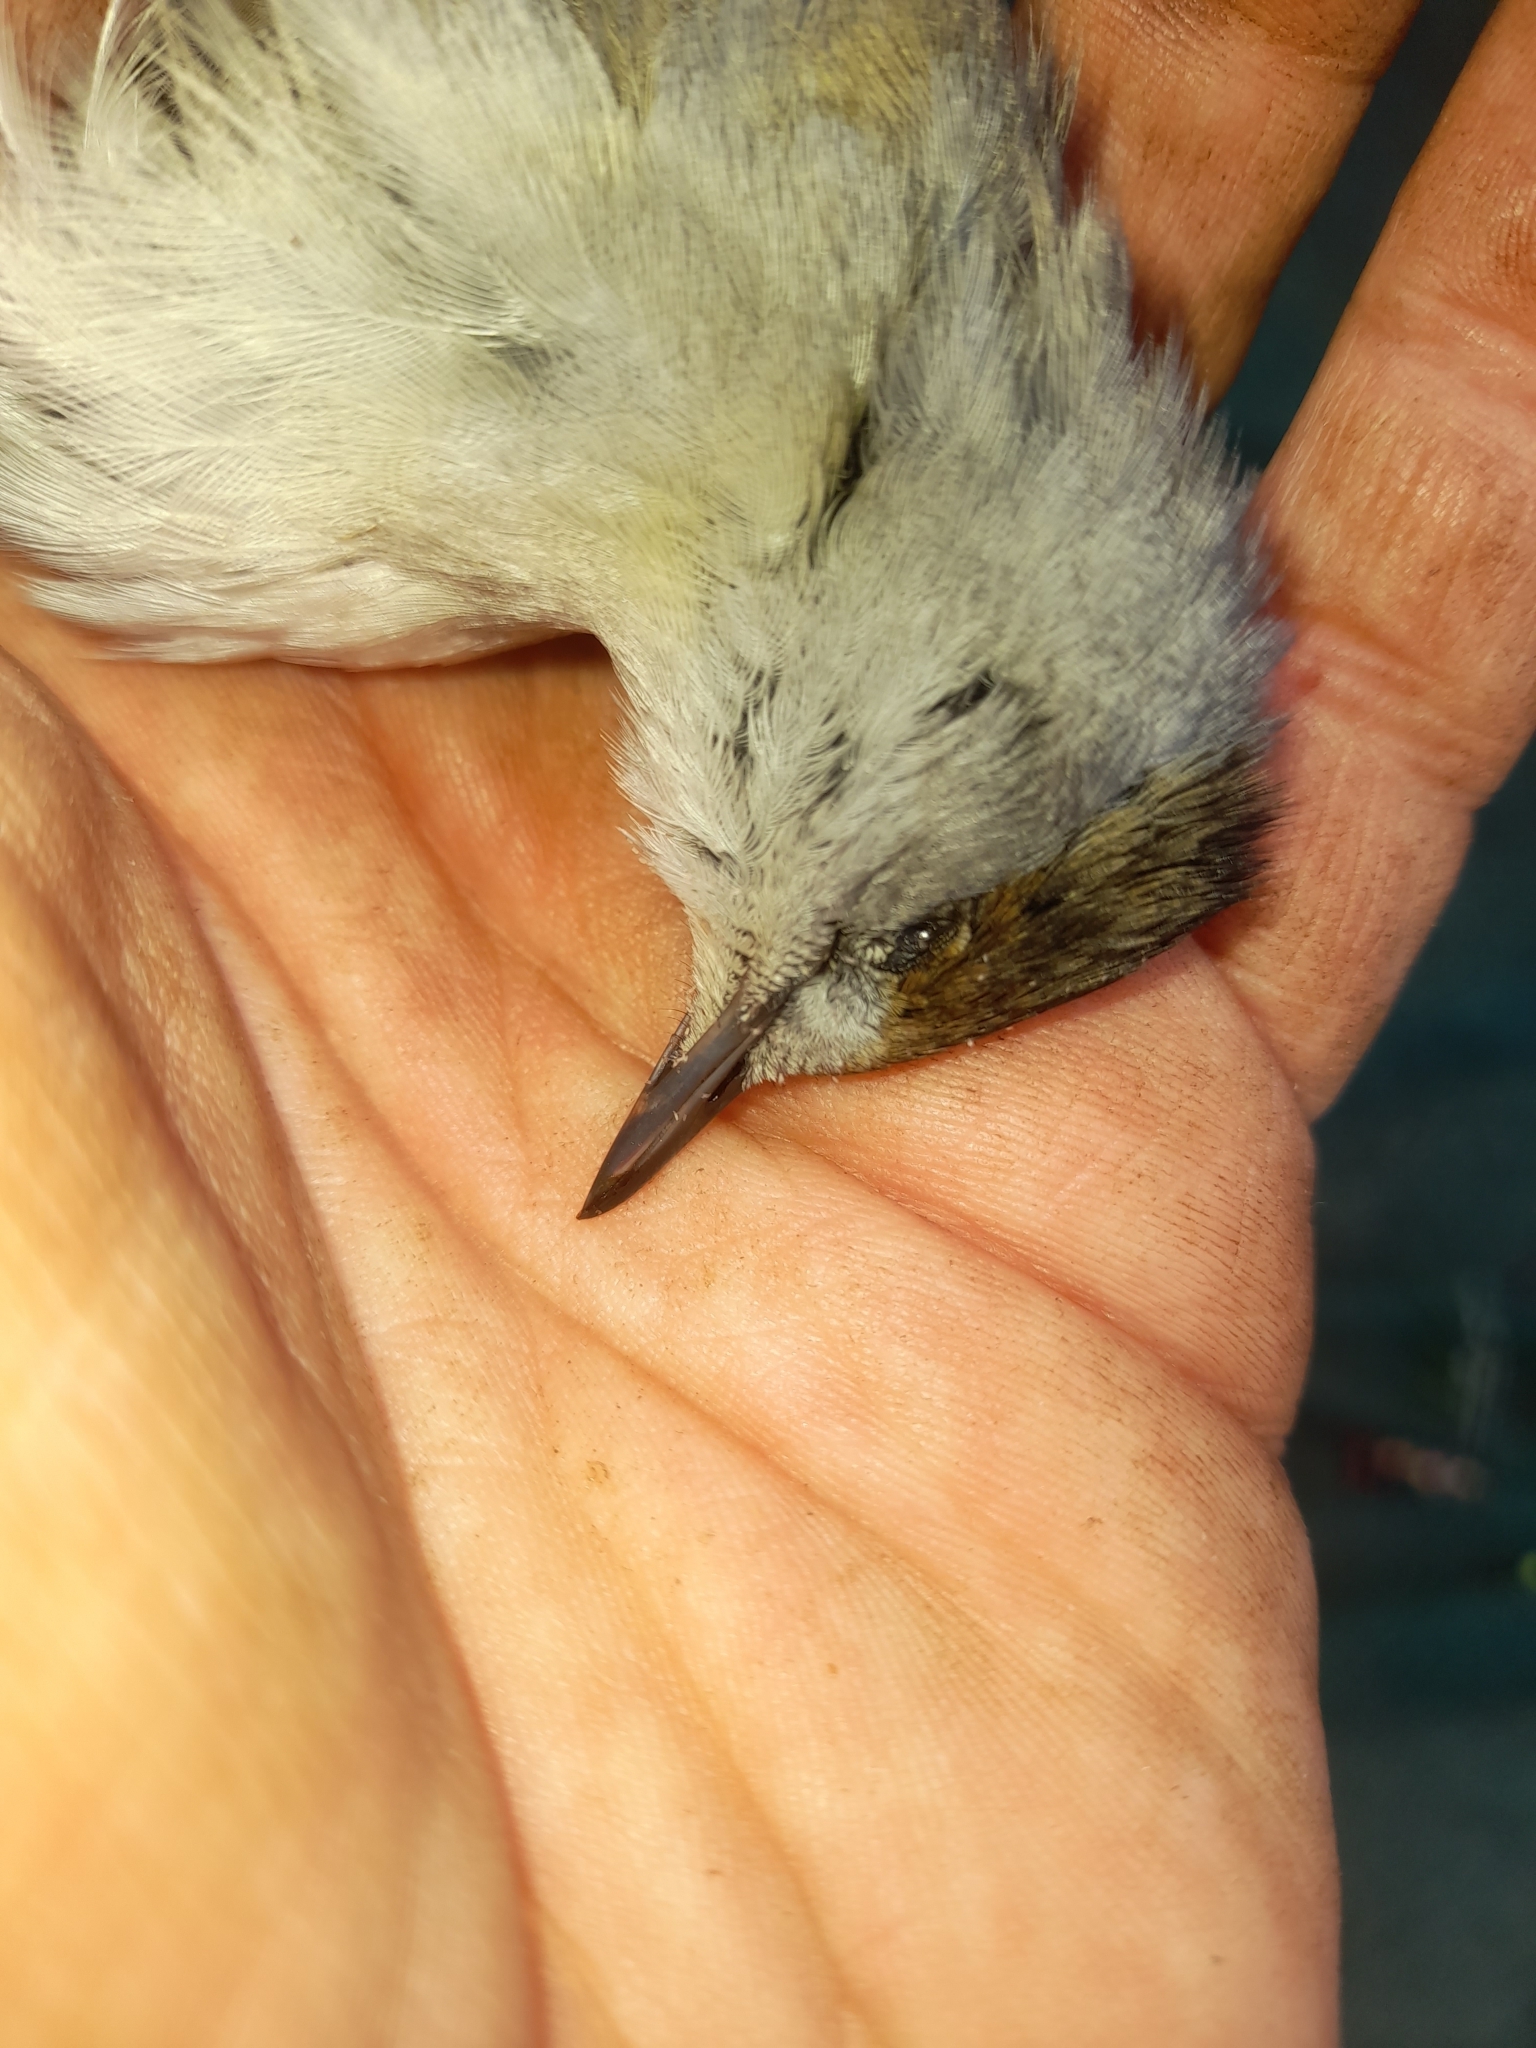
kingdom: Animalia
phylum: Chordata
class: Aves
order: Passeriformes
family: Sylviidae
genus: Sylvia
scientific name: Sylvia atricapilla
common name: Eurasian blackcap
